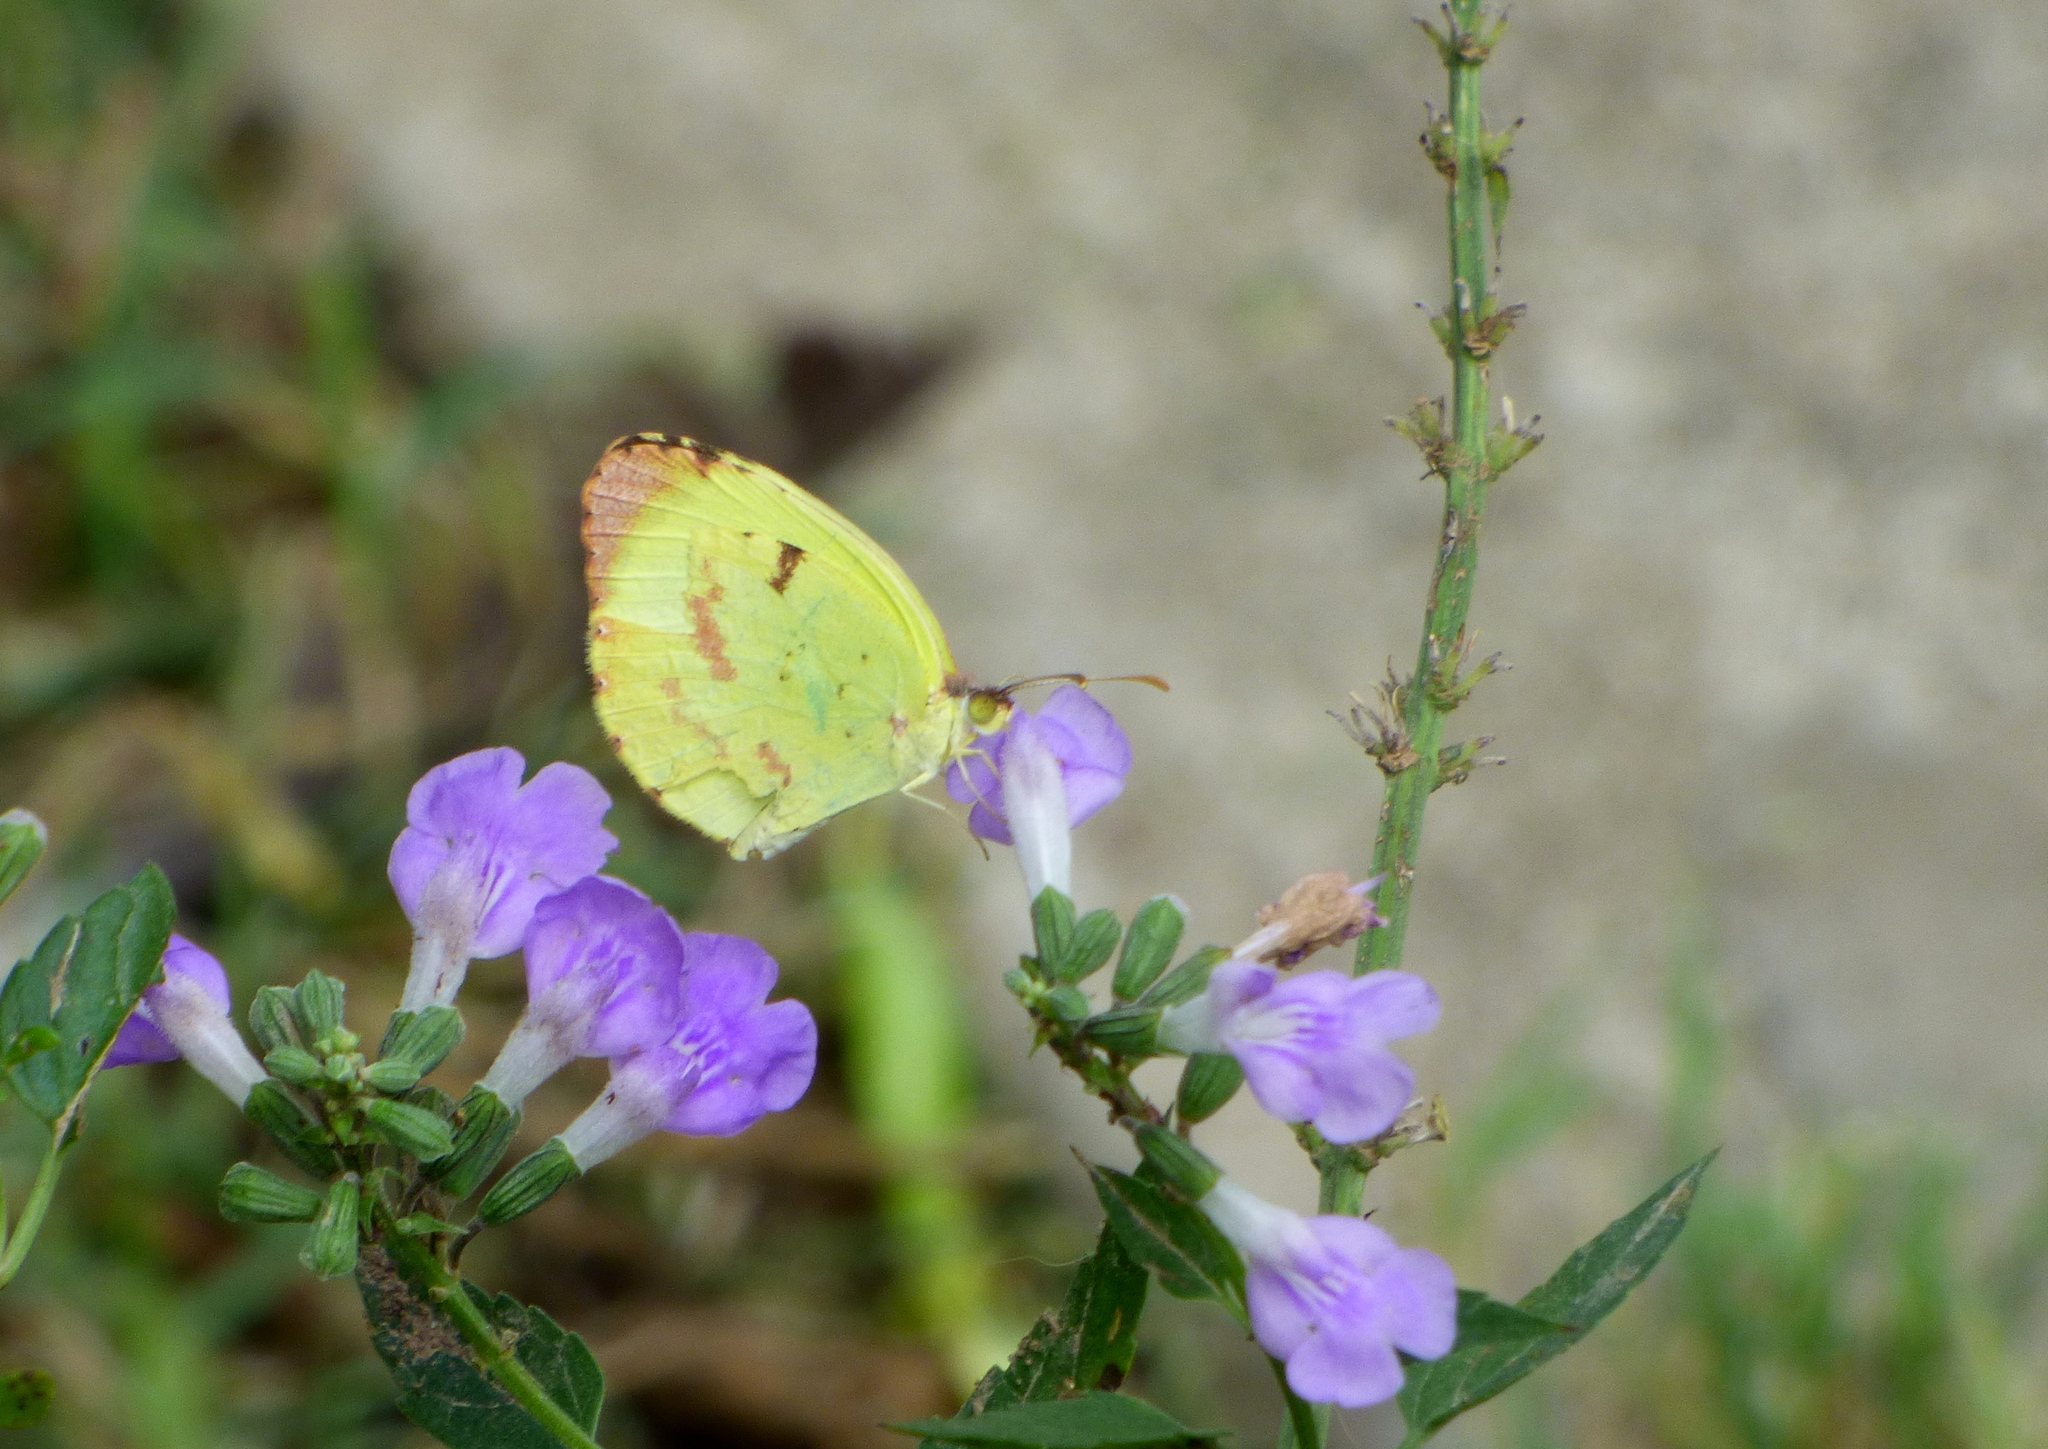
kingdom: Animalia
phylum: Arthropoda
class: Insecta
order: Lepidoptera
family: Pieridae
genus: Teriocolias
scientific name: Teriocolias
